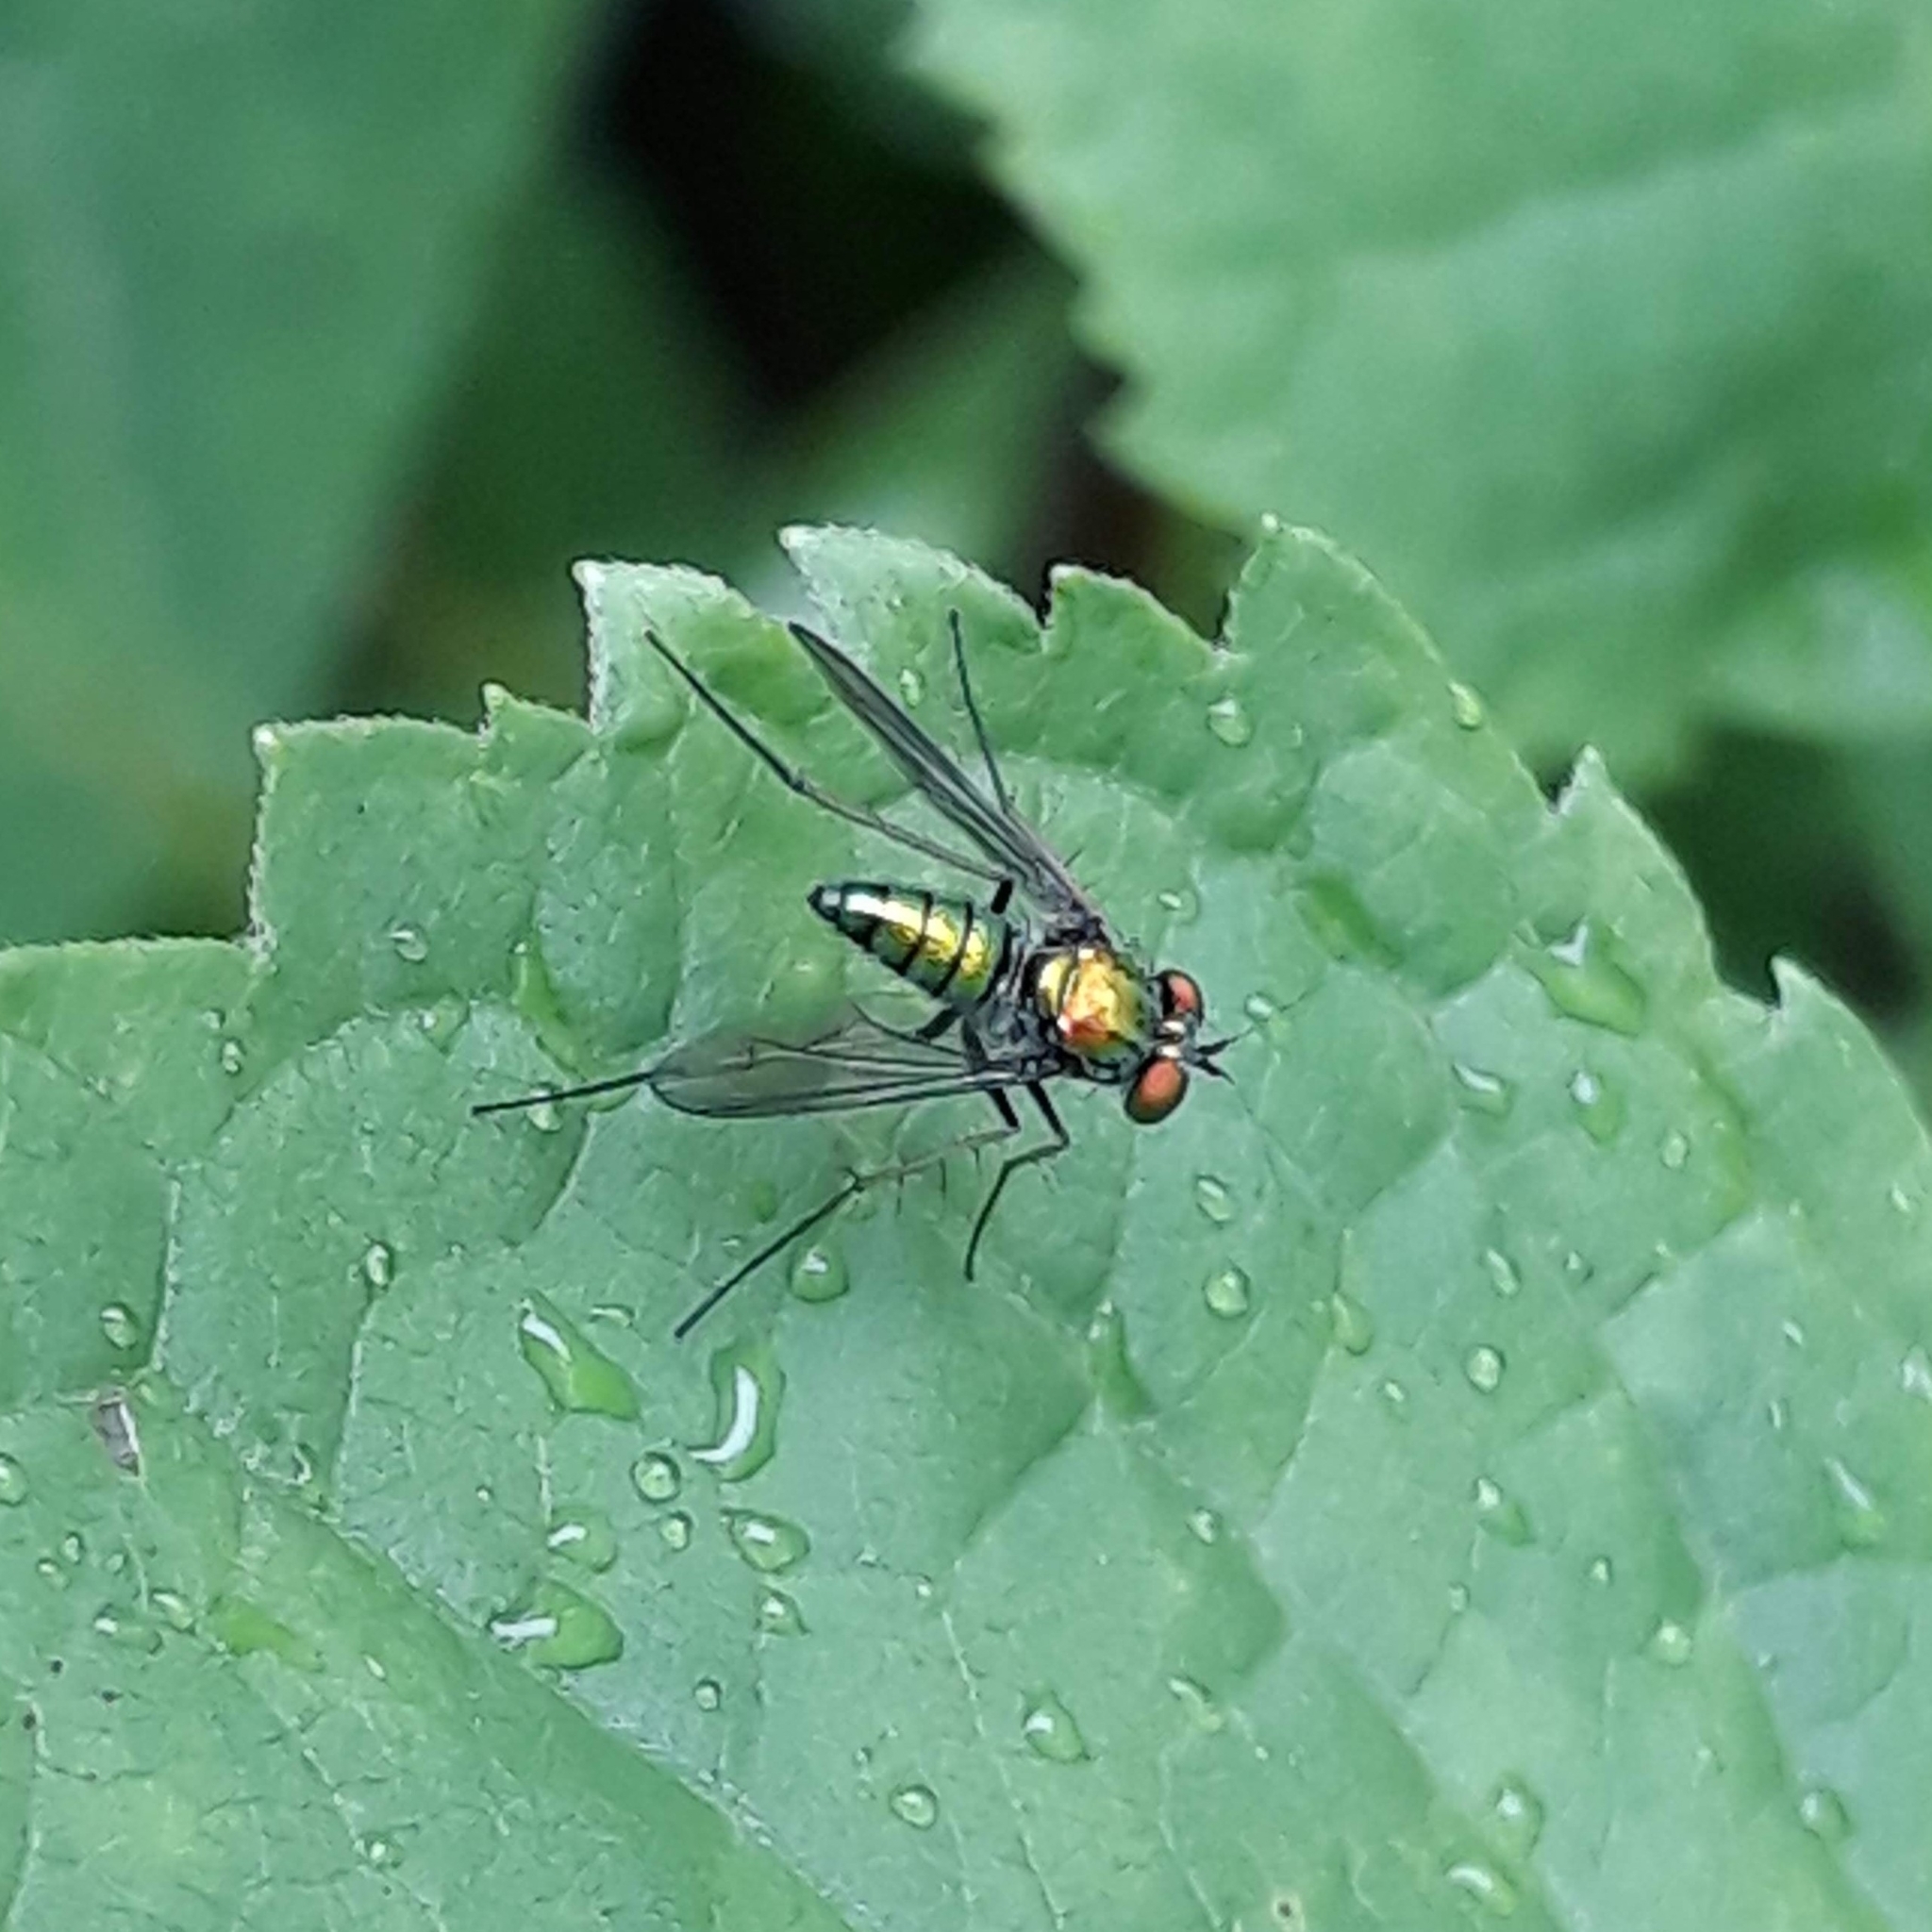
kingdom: Animalia
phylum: Arthropoda
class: Insecta
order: Diptera
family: Dolichopodidae
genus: Condylostylus
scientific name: Condylostylus
